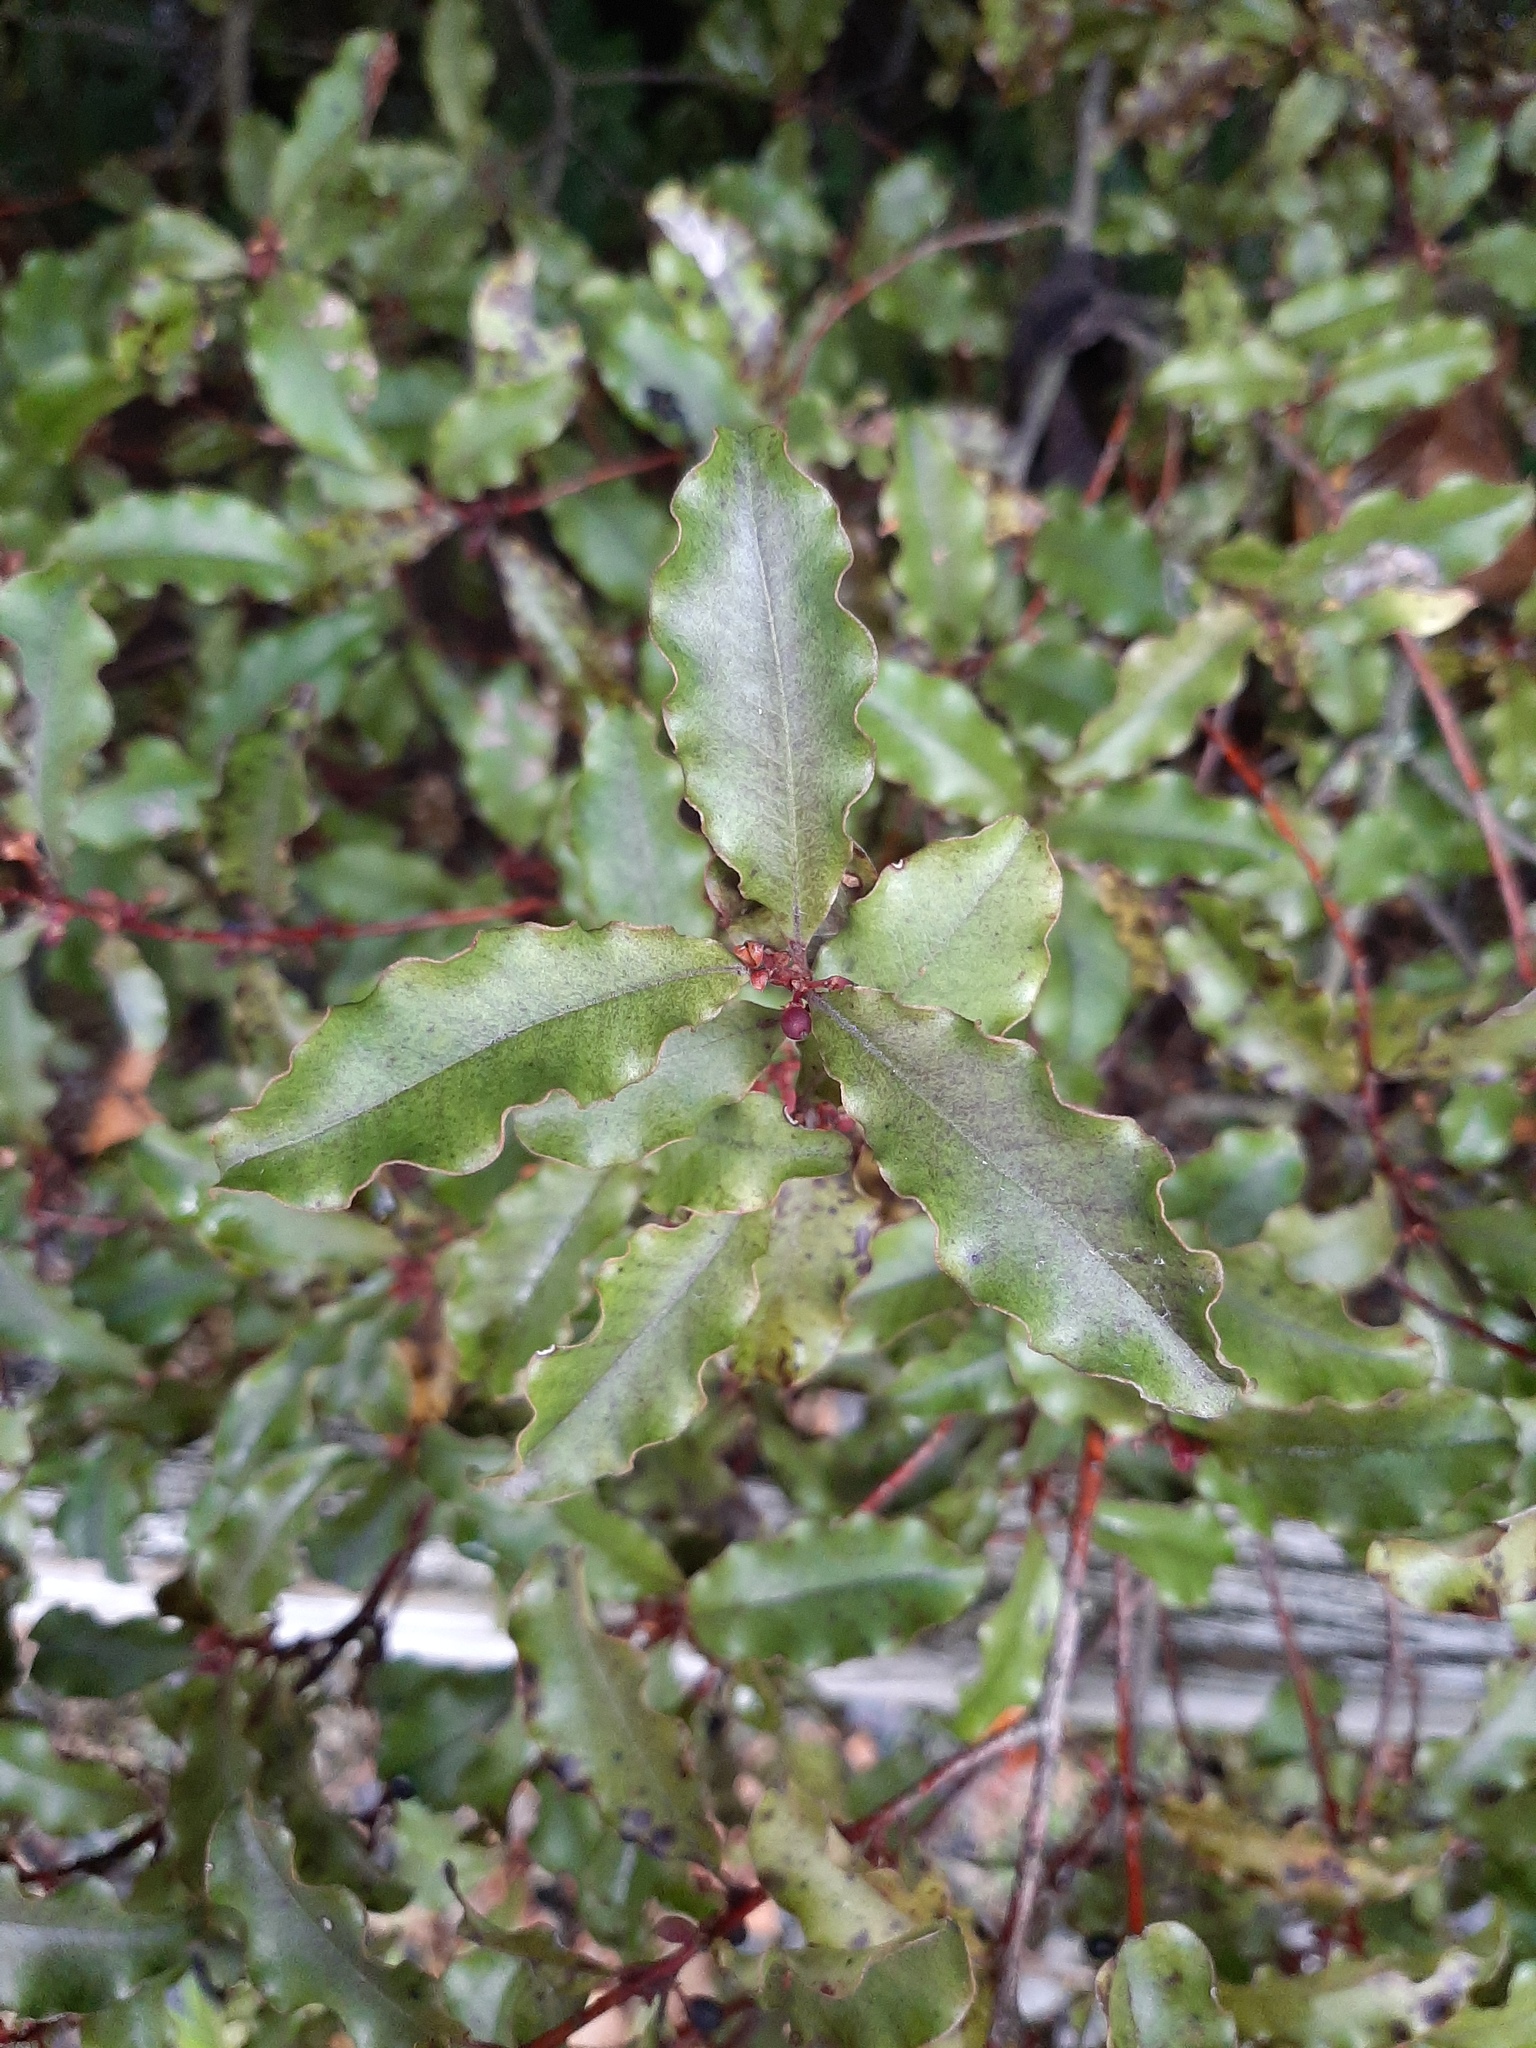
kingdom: Plantae
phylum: Tracheophyta
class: Magnoliopsida
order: Ericales
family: Primulaceae
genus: Myrsine
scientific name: Myrsine australis
